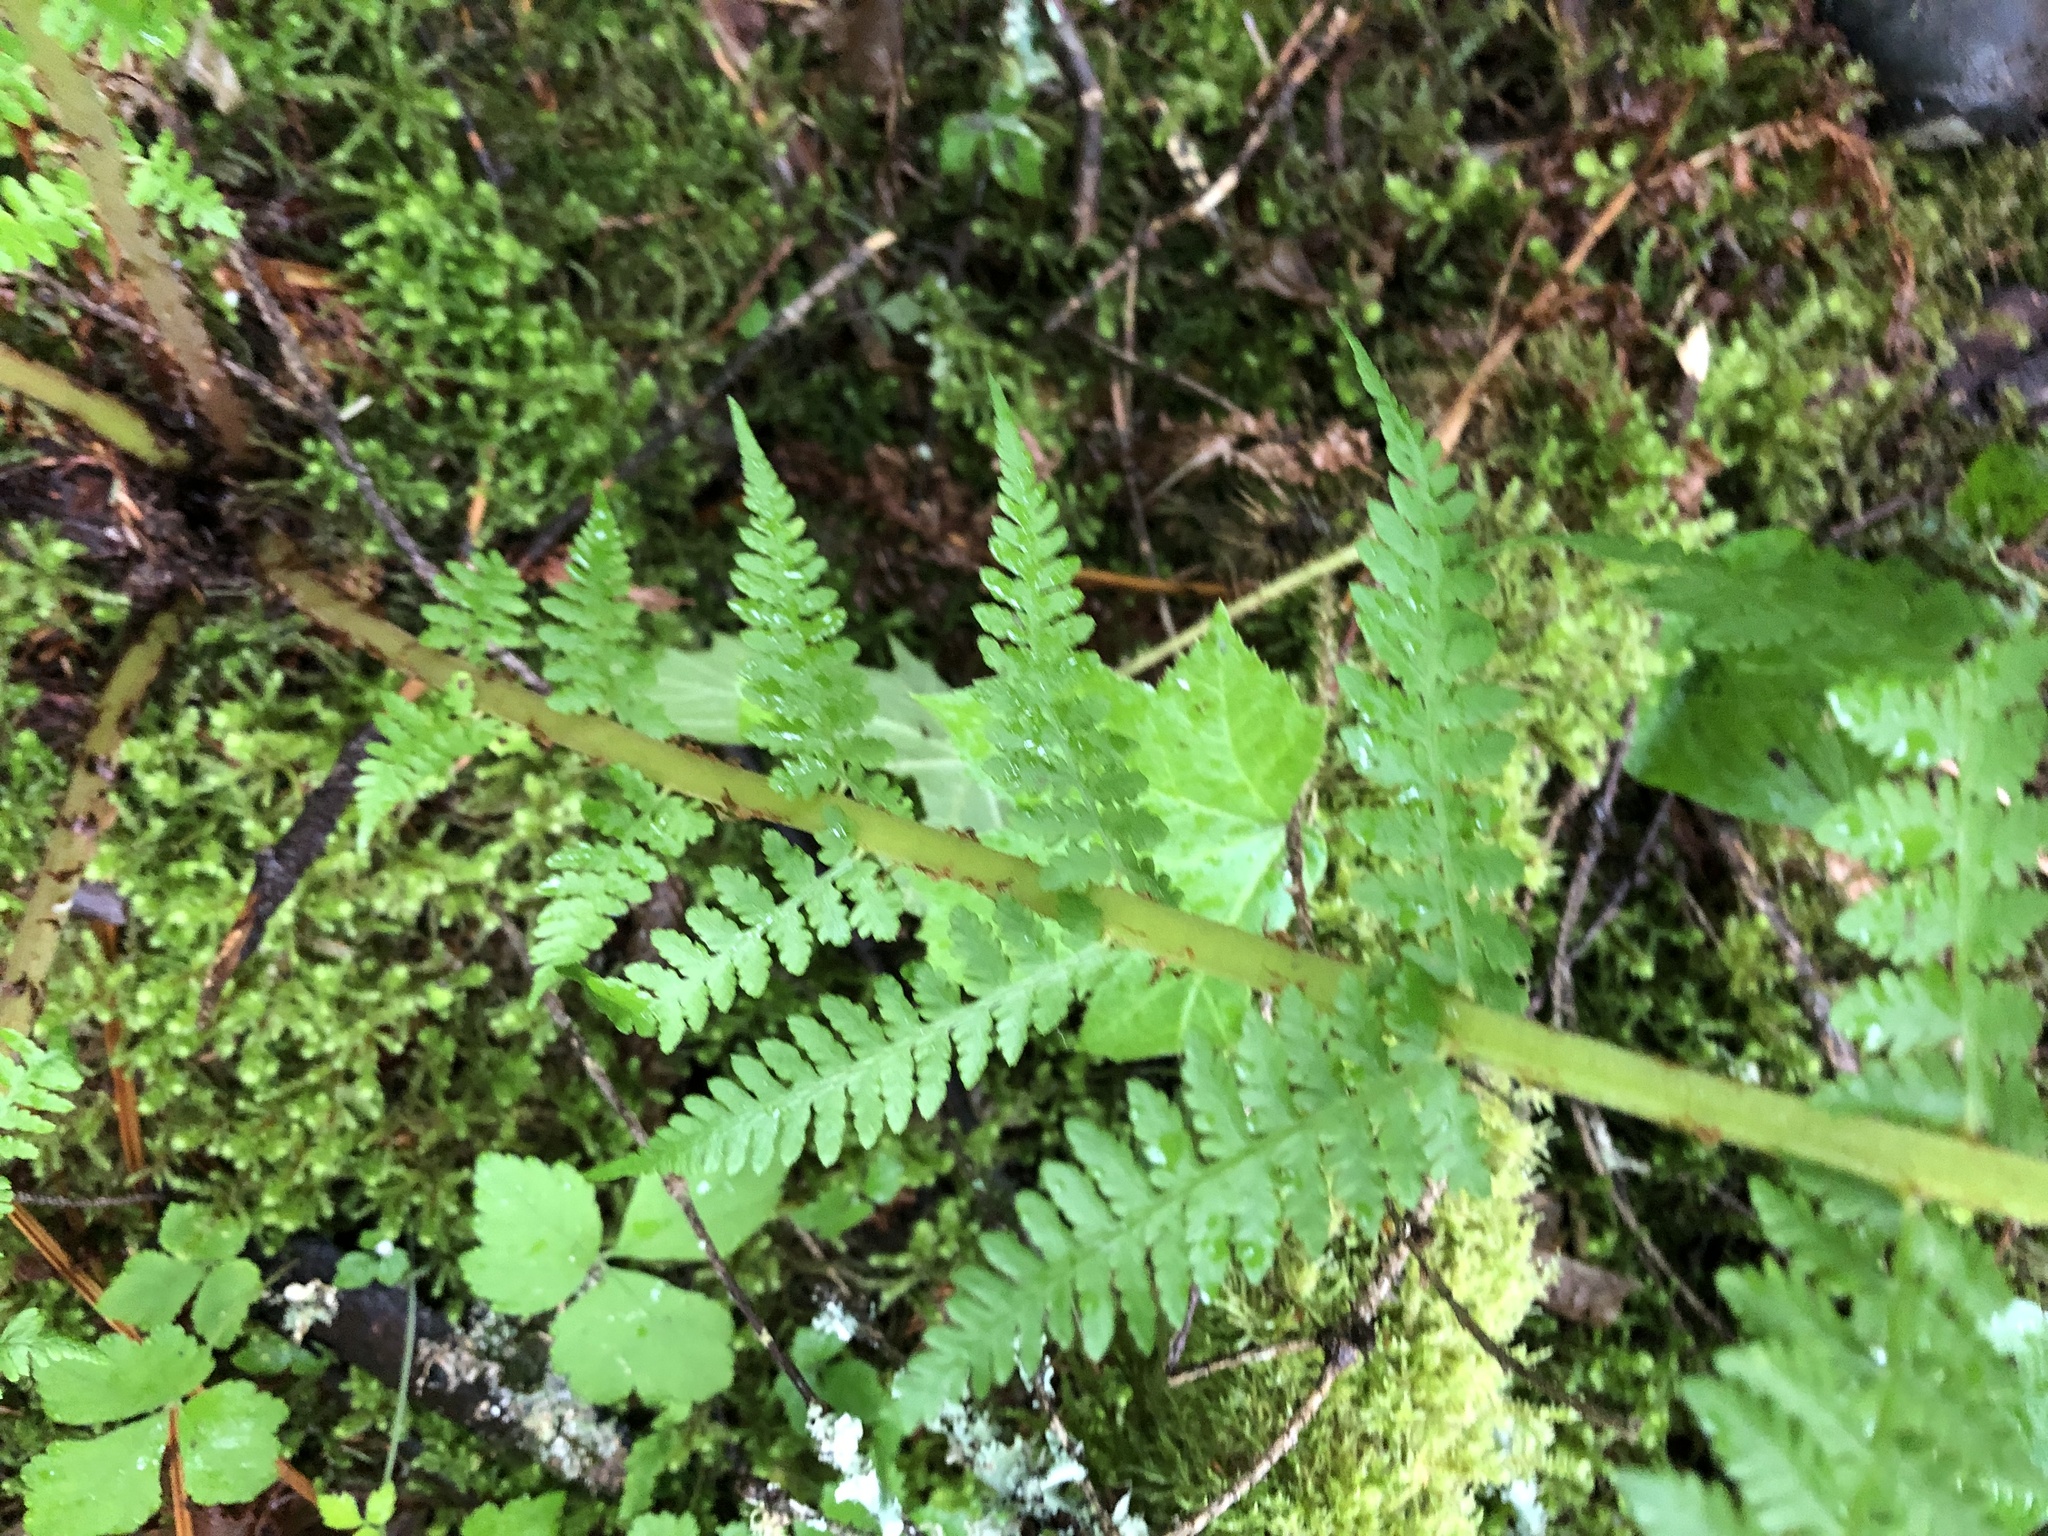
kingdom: Plantae
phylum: Tracheophyta
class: Polypodiopsida
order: Polypodiales
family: Athyriaceae
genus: Athyrium
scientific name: Athyrium filix-femina
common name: Lady fern
